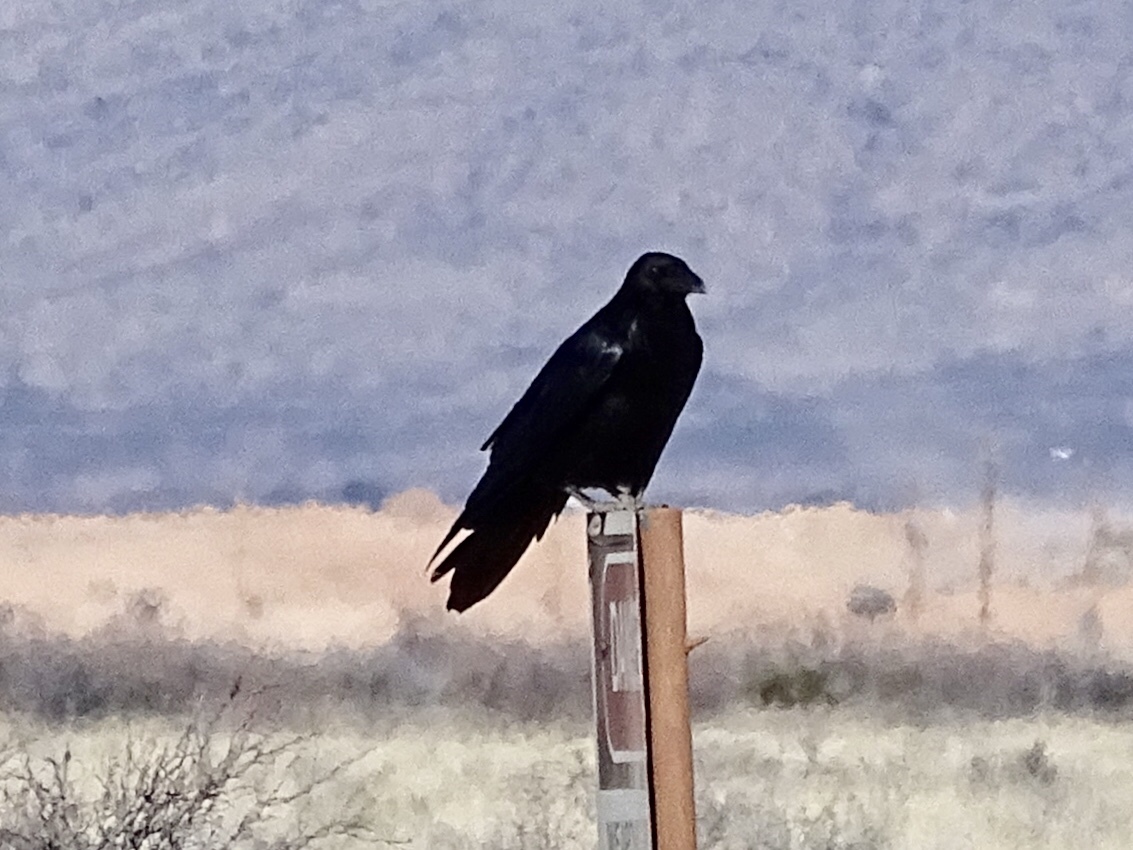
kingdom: Animalia
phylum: Chordata
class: Aves
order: Passeriformes
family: Corvidae
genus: Corvus
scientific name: Corvus corax
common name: Common raven
